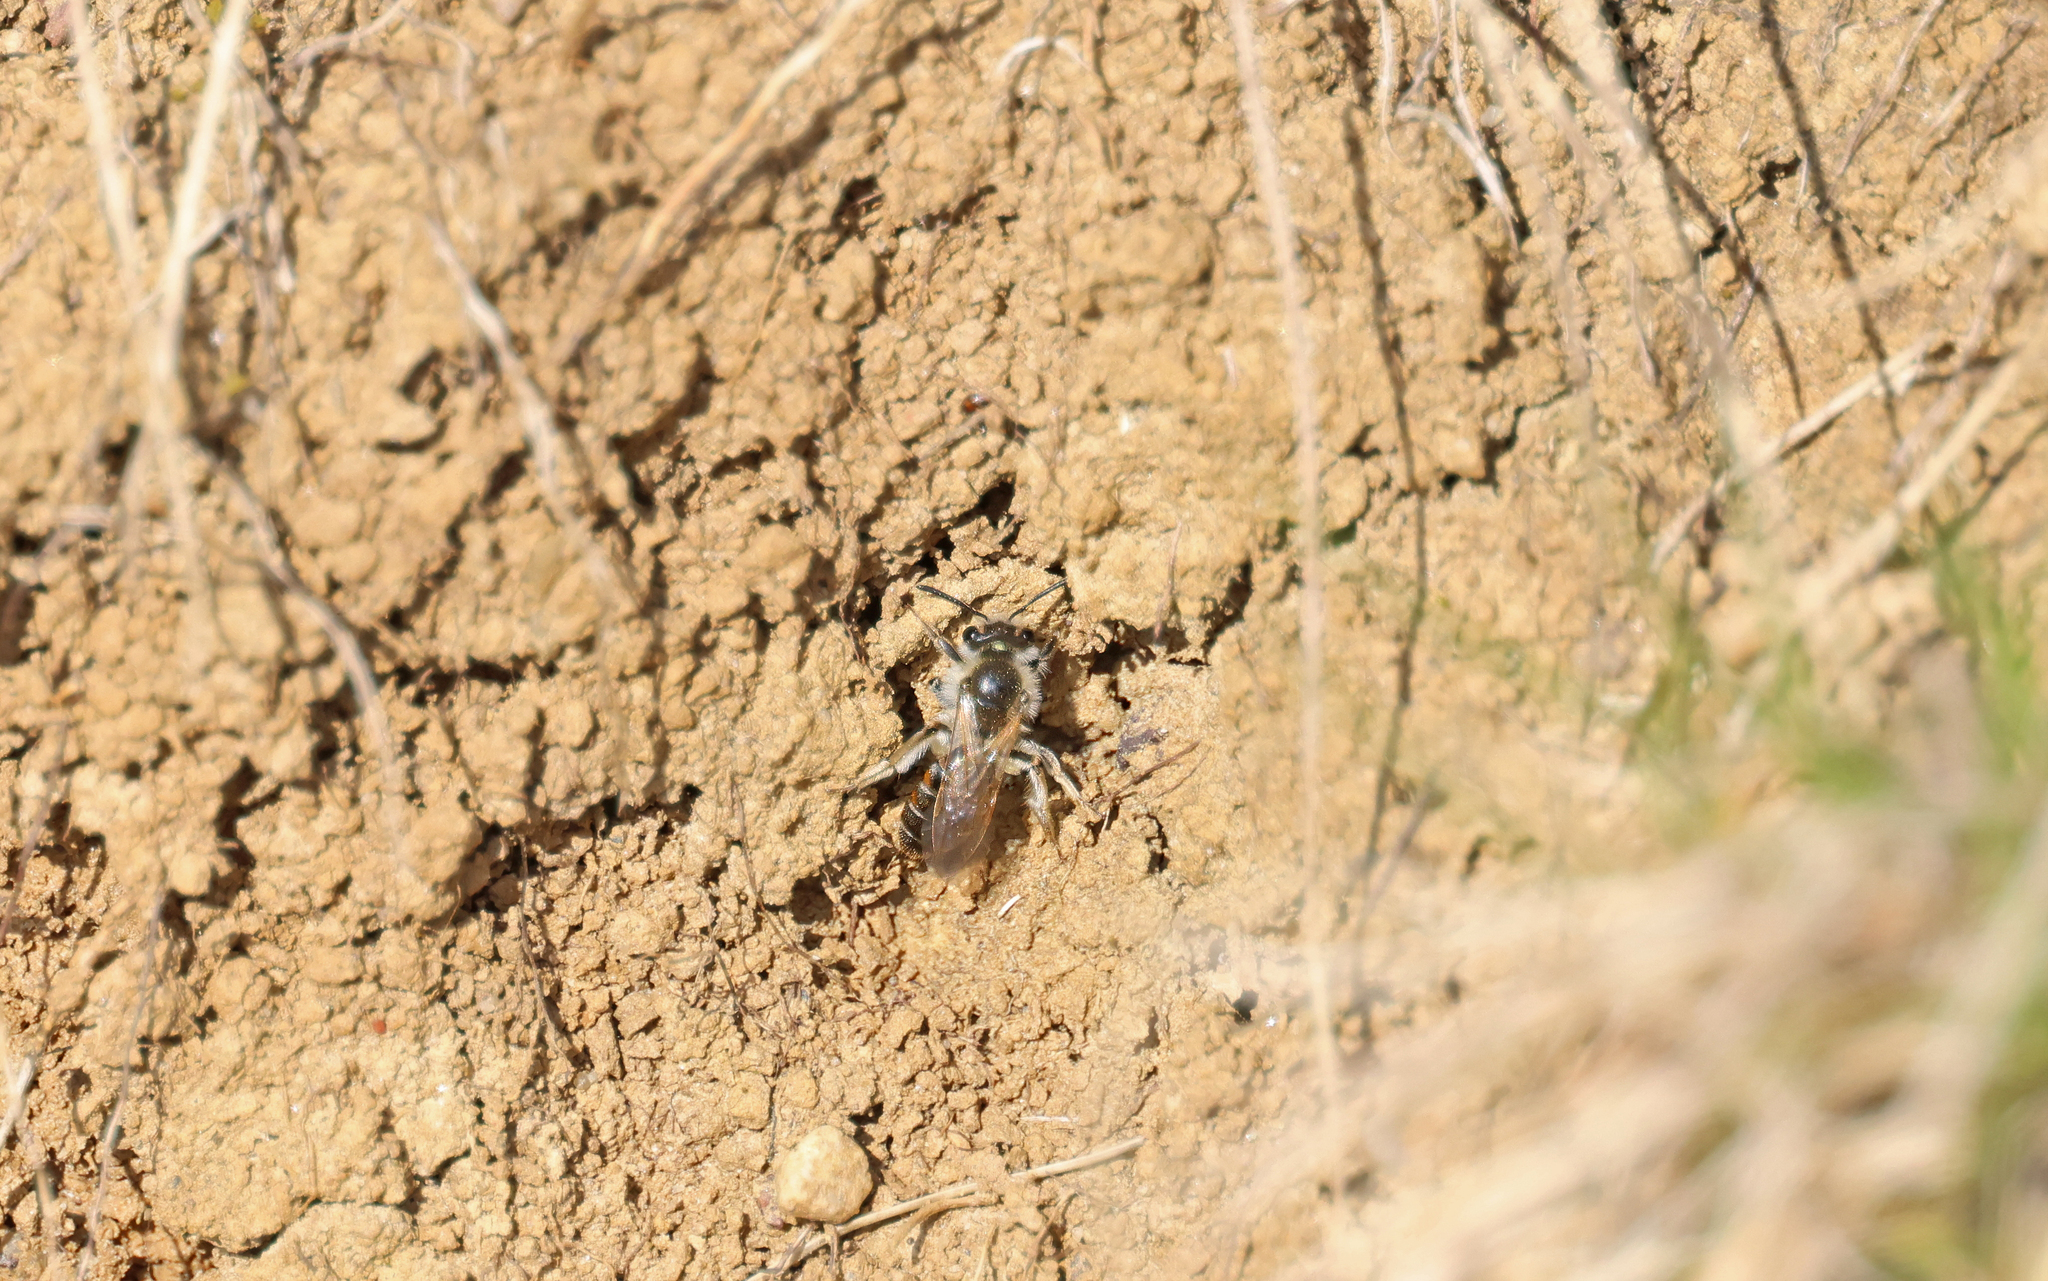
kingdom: Animalia
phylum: Arthropoda
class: Insecta
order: Hymenoptera
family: Andrenidae
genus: Andrena
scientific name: Andrena ventralis
